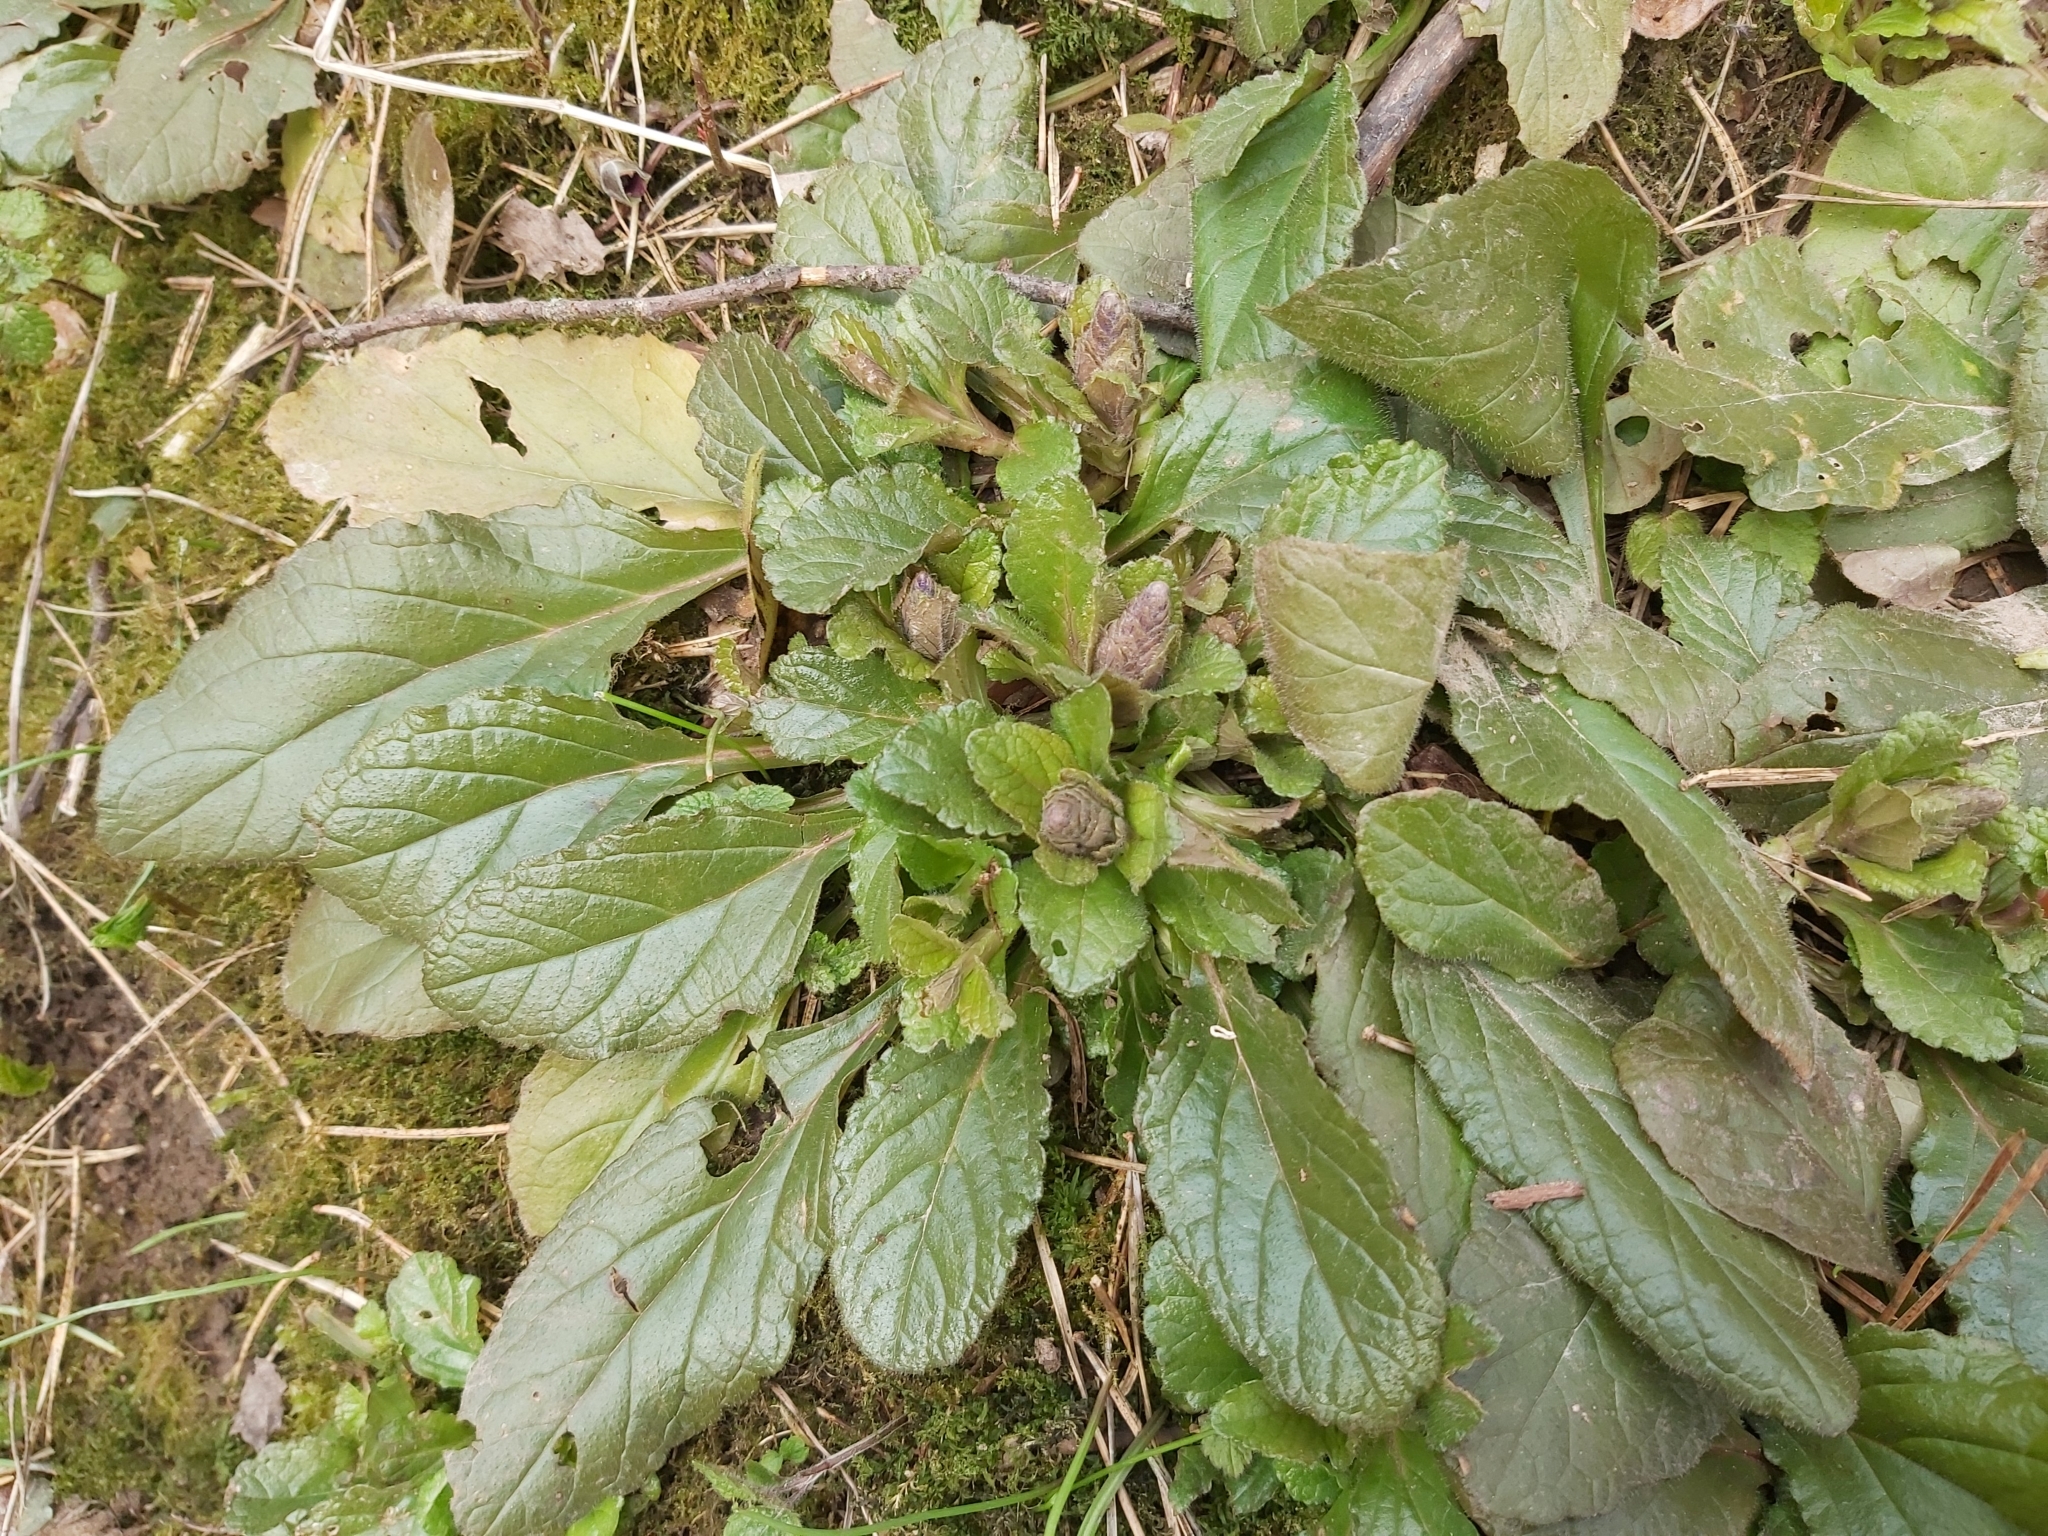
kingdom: Plantae
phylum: Tracheophyta
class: Magnoliopsida
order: Lamiales
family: Lamiaceae
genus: Ajuga
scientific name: Ajuga reptans
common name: Bugle
